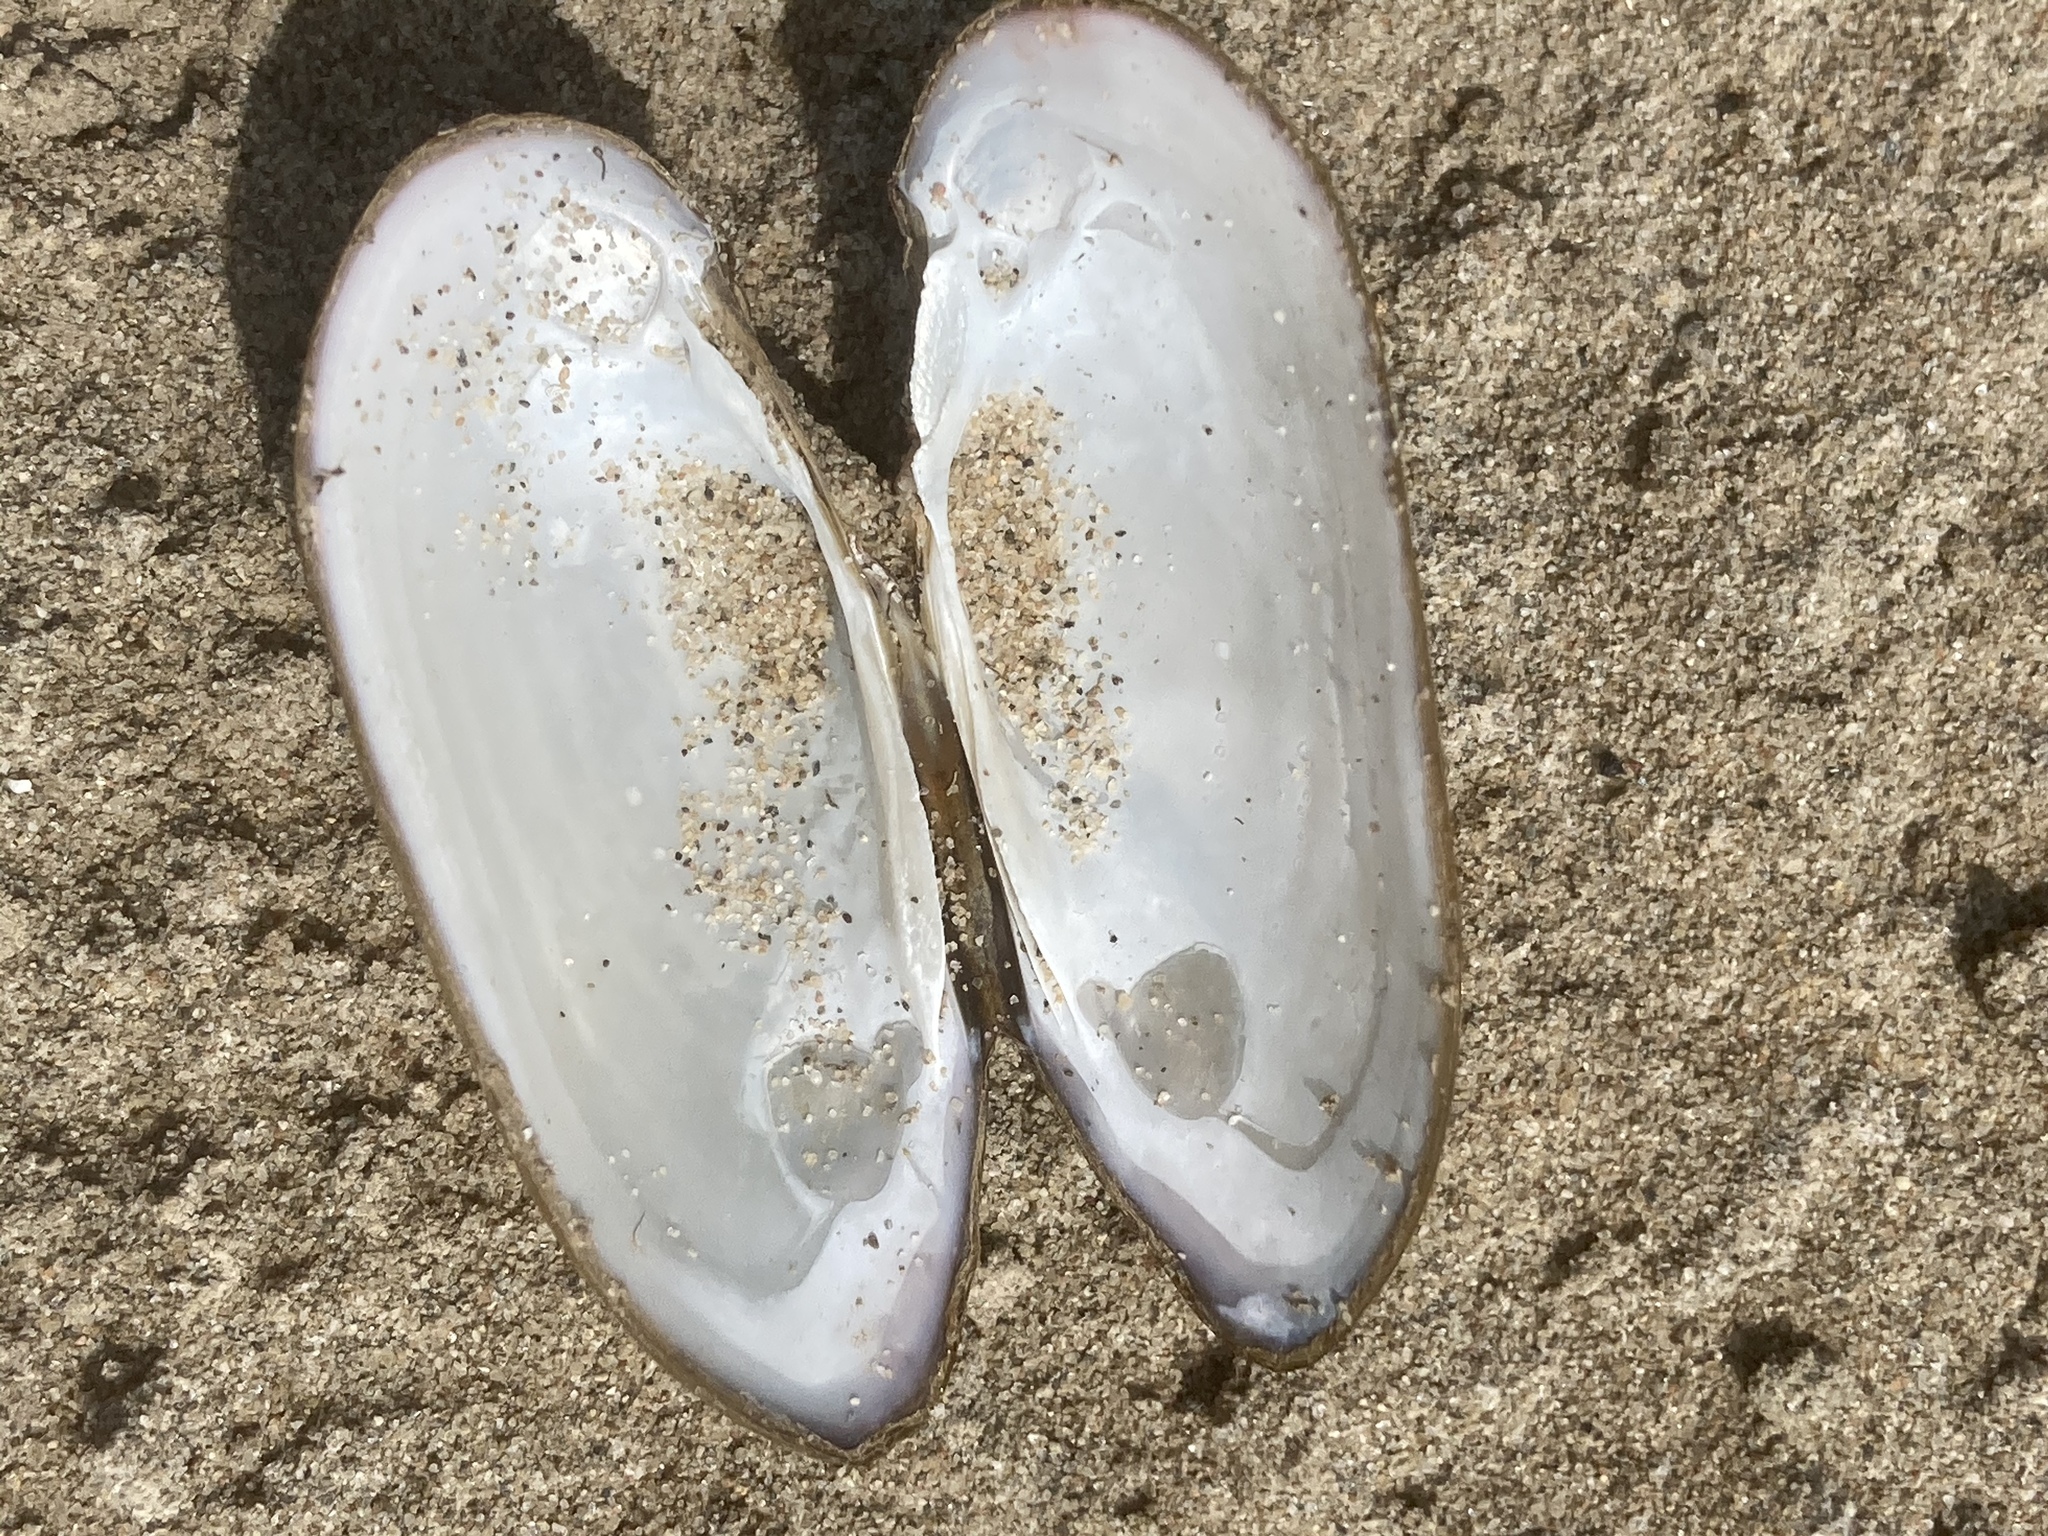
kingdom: Animalia
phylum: Mollusca
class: Bivalvia
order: Unionida
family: Unionidae
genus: Unio
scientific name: Unio pictorum
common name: Painter's mussel
